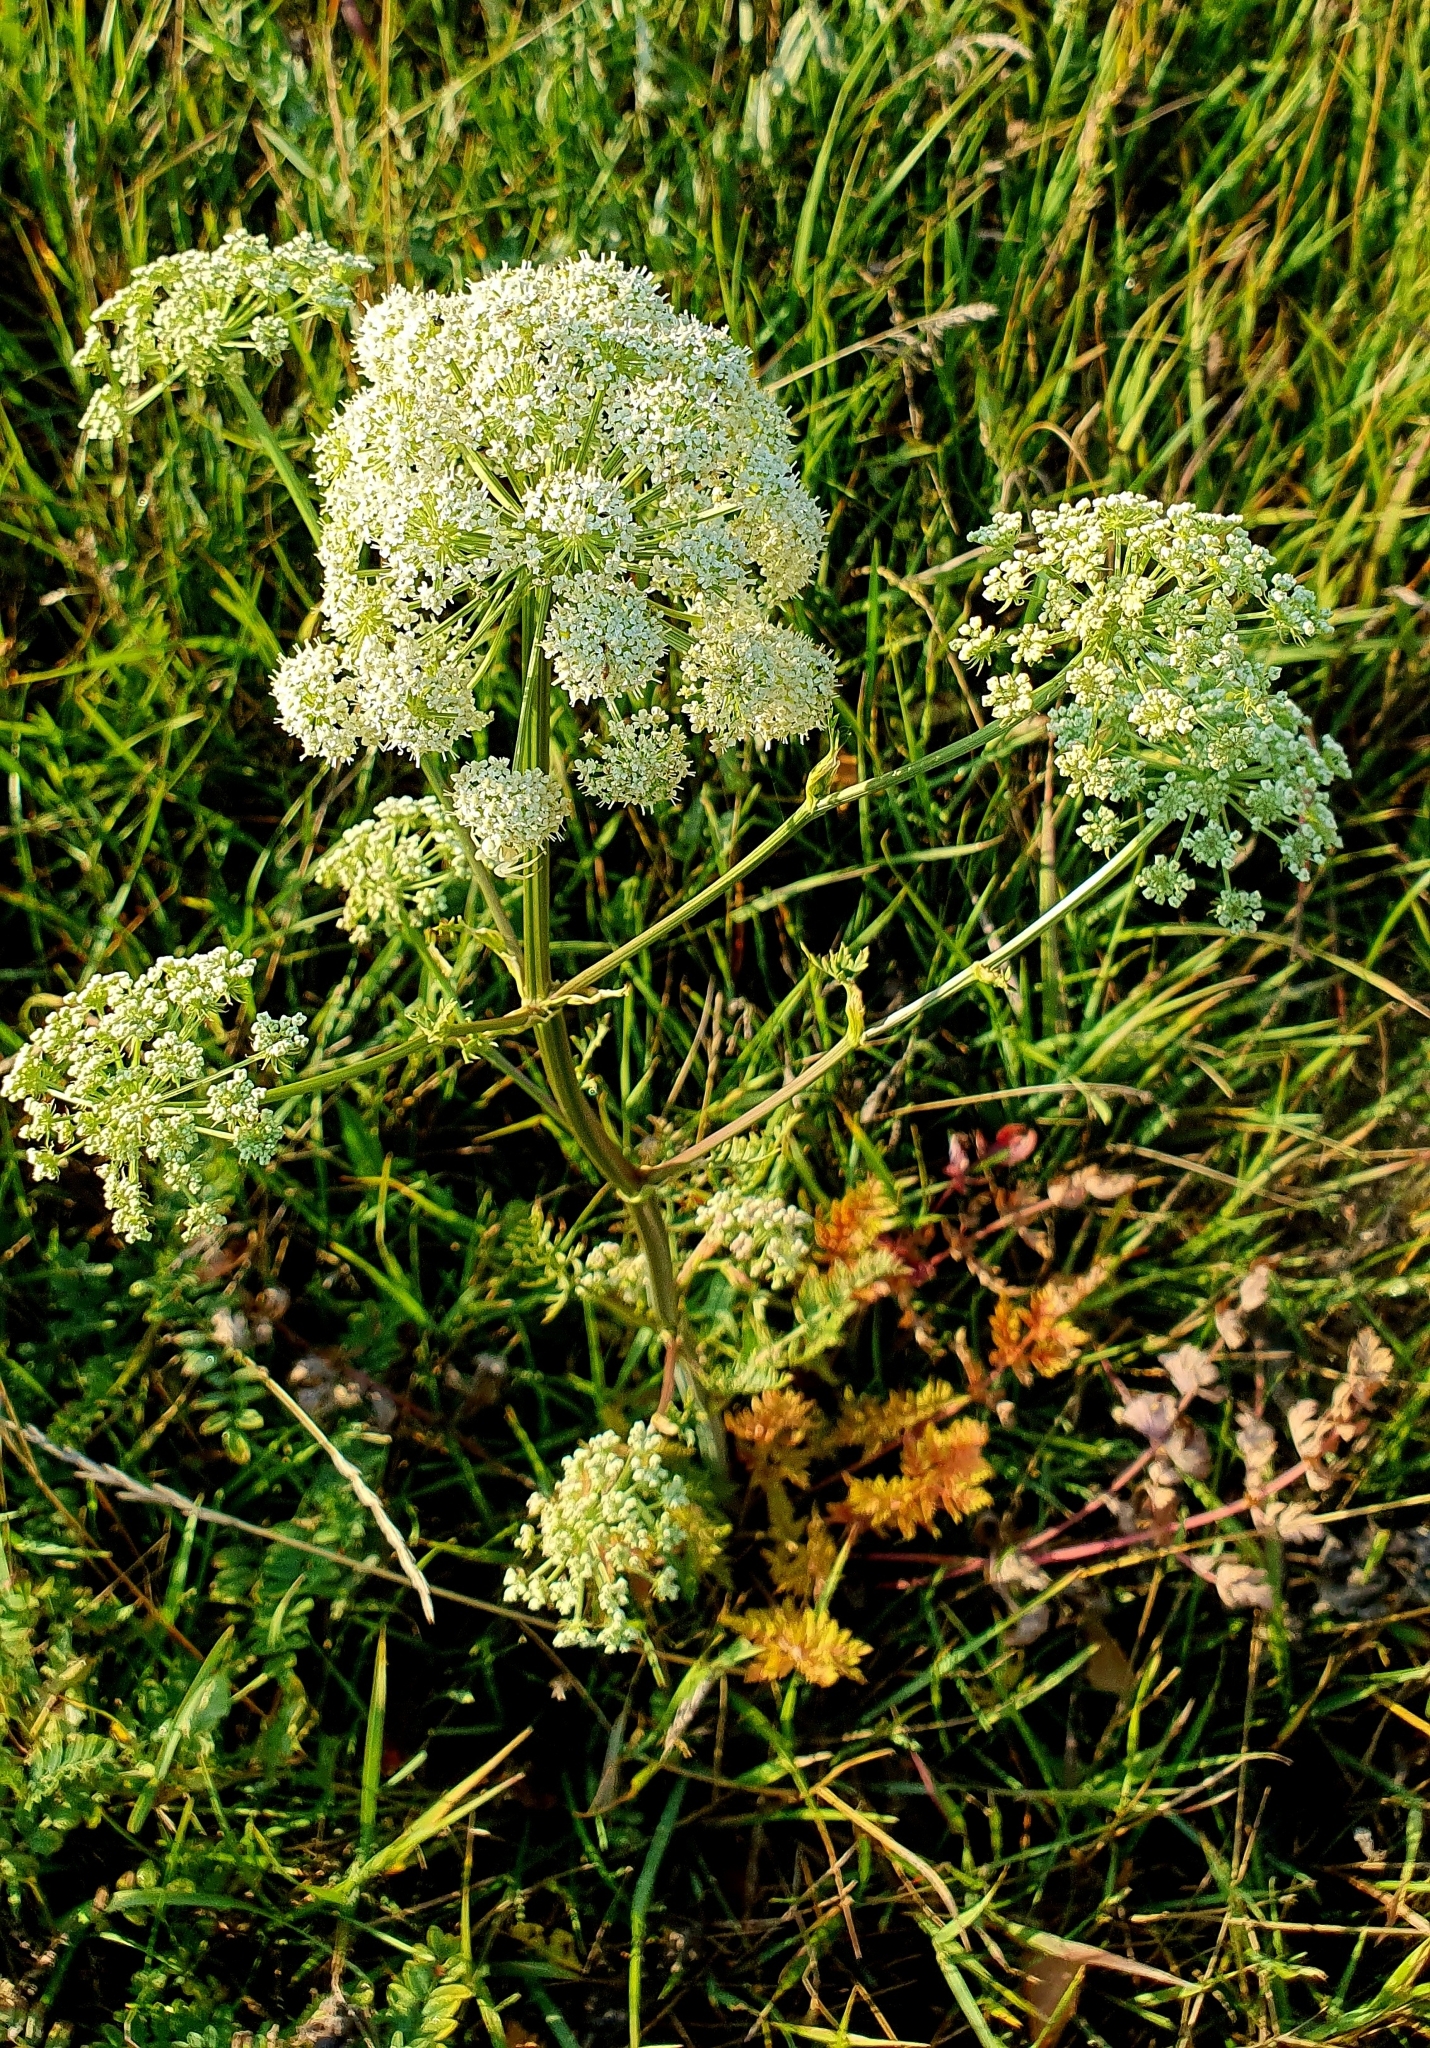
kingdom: Plantae
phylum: Tracheophyta
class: Magnoliopsida
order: Apiales
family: Apiaceae
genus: Seseli
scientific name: Seseli libanotis
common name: Mooncarrot
